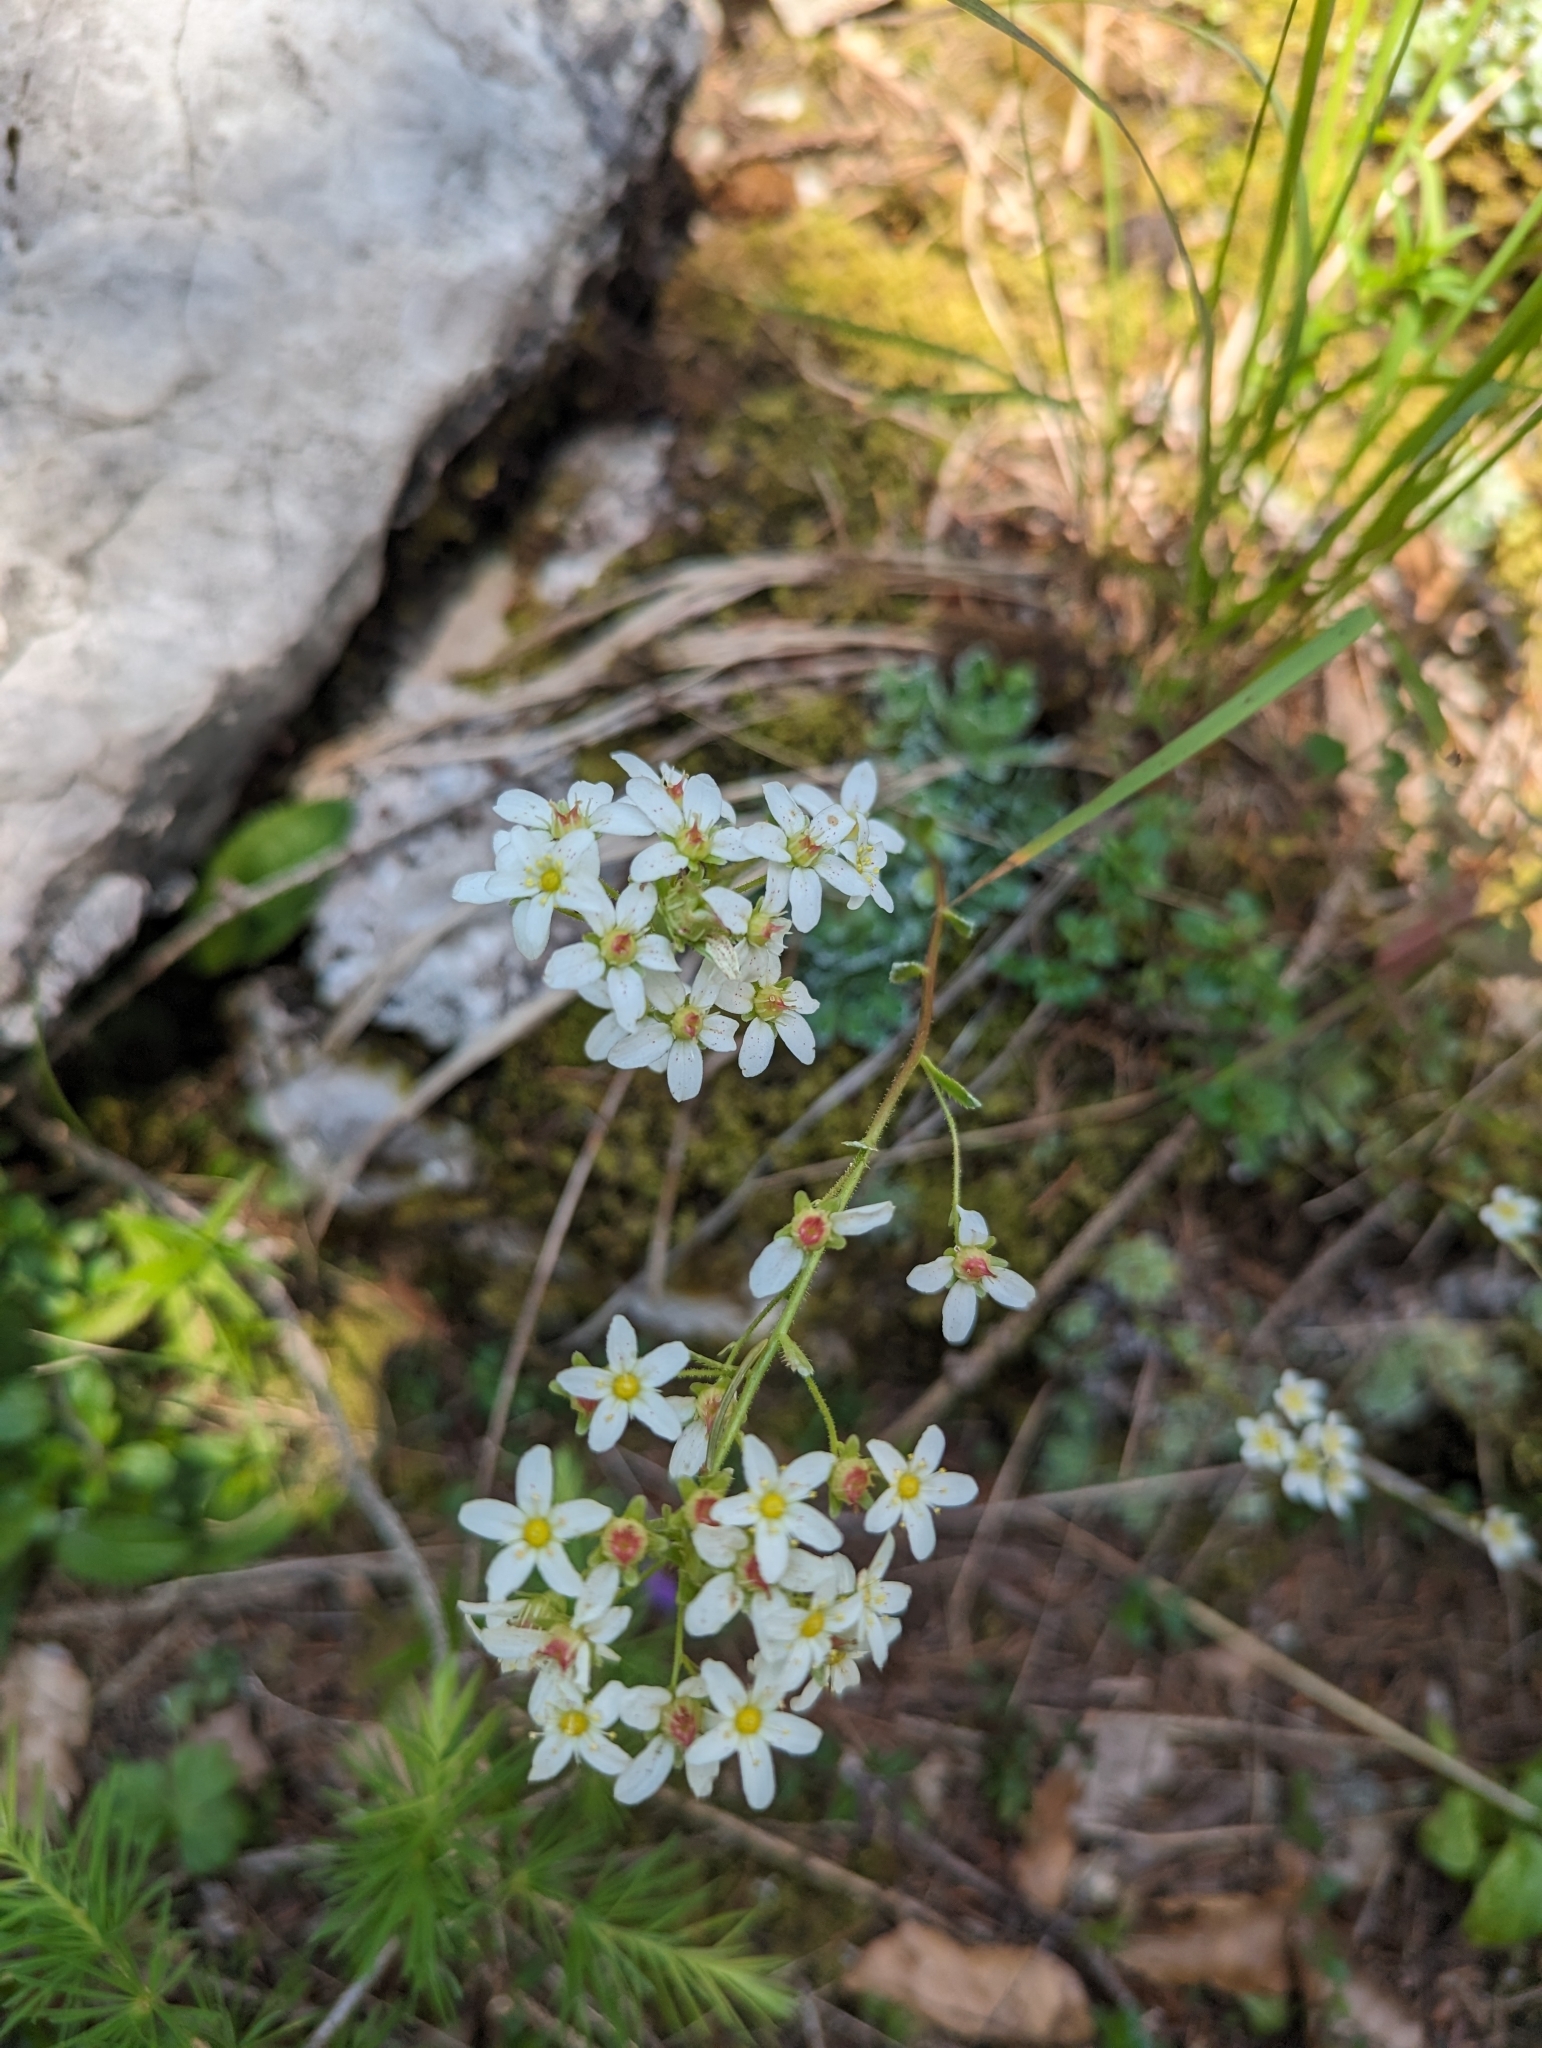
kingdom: Plantae
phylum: Tracheophyta
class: Magnoliopsida
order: Saxifragales
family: Saxifragaceae
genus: Saxifraga
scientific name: Saxifraga paniculata
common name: Livelong saxifrage
